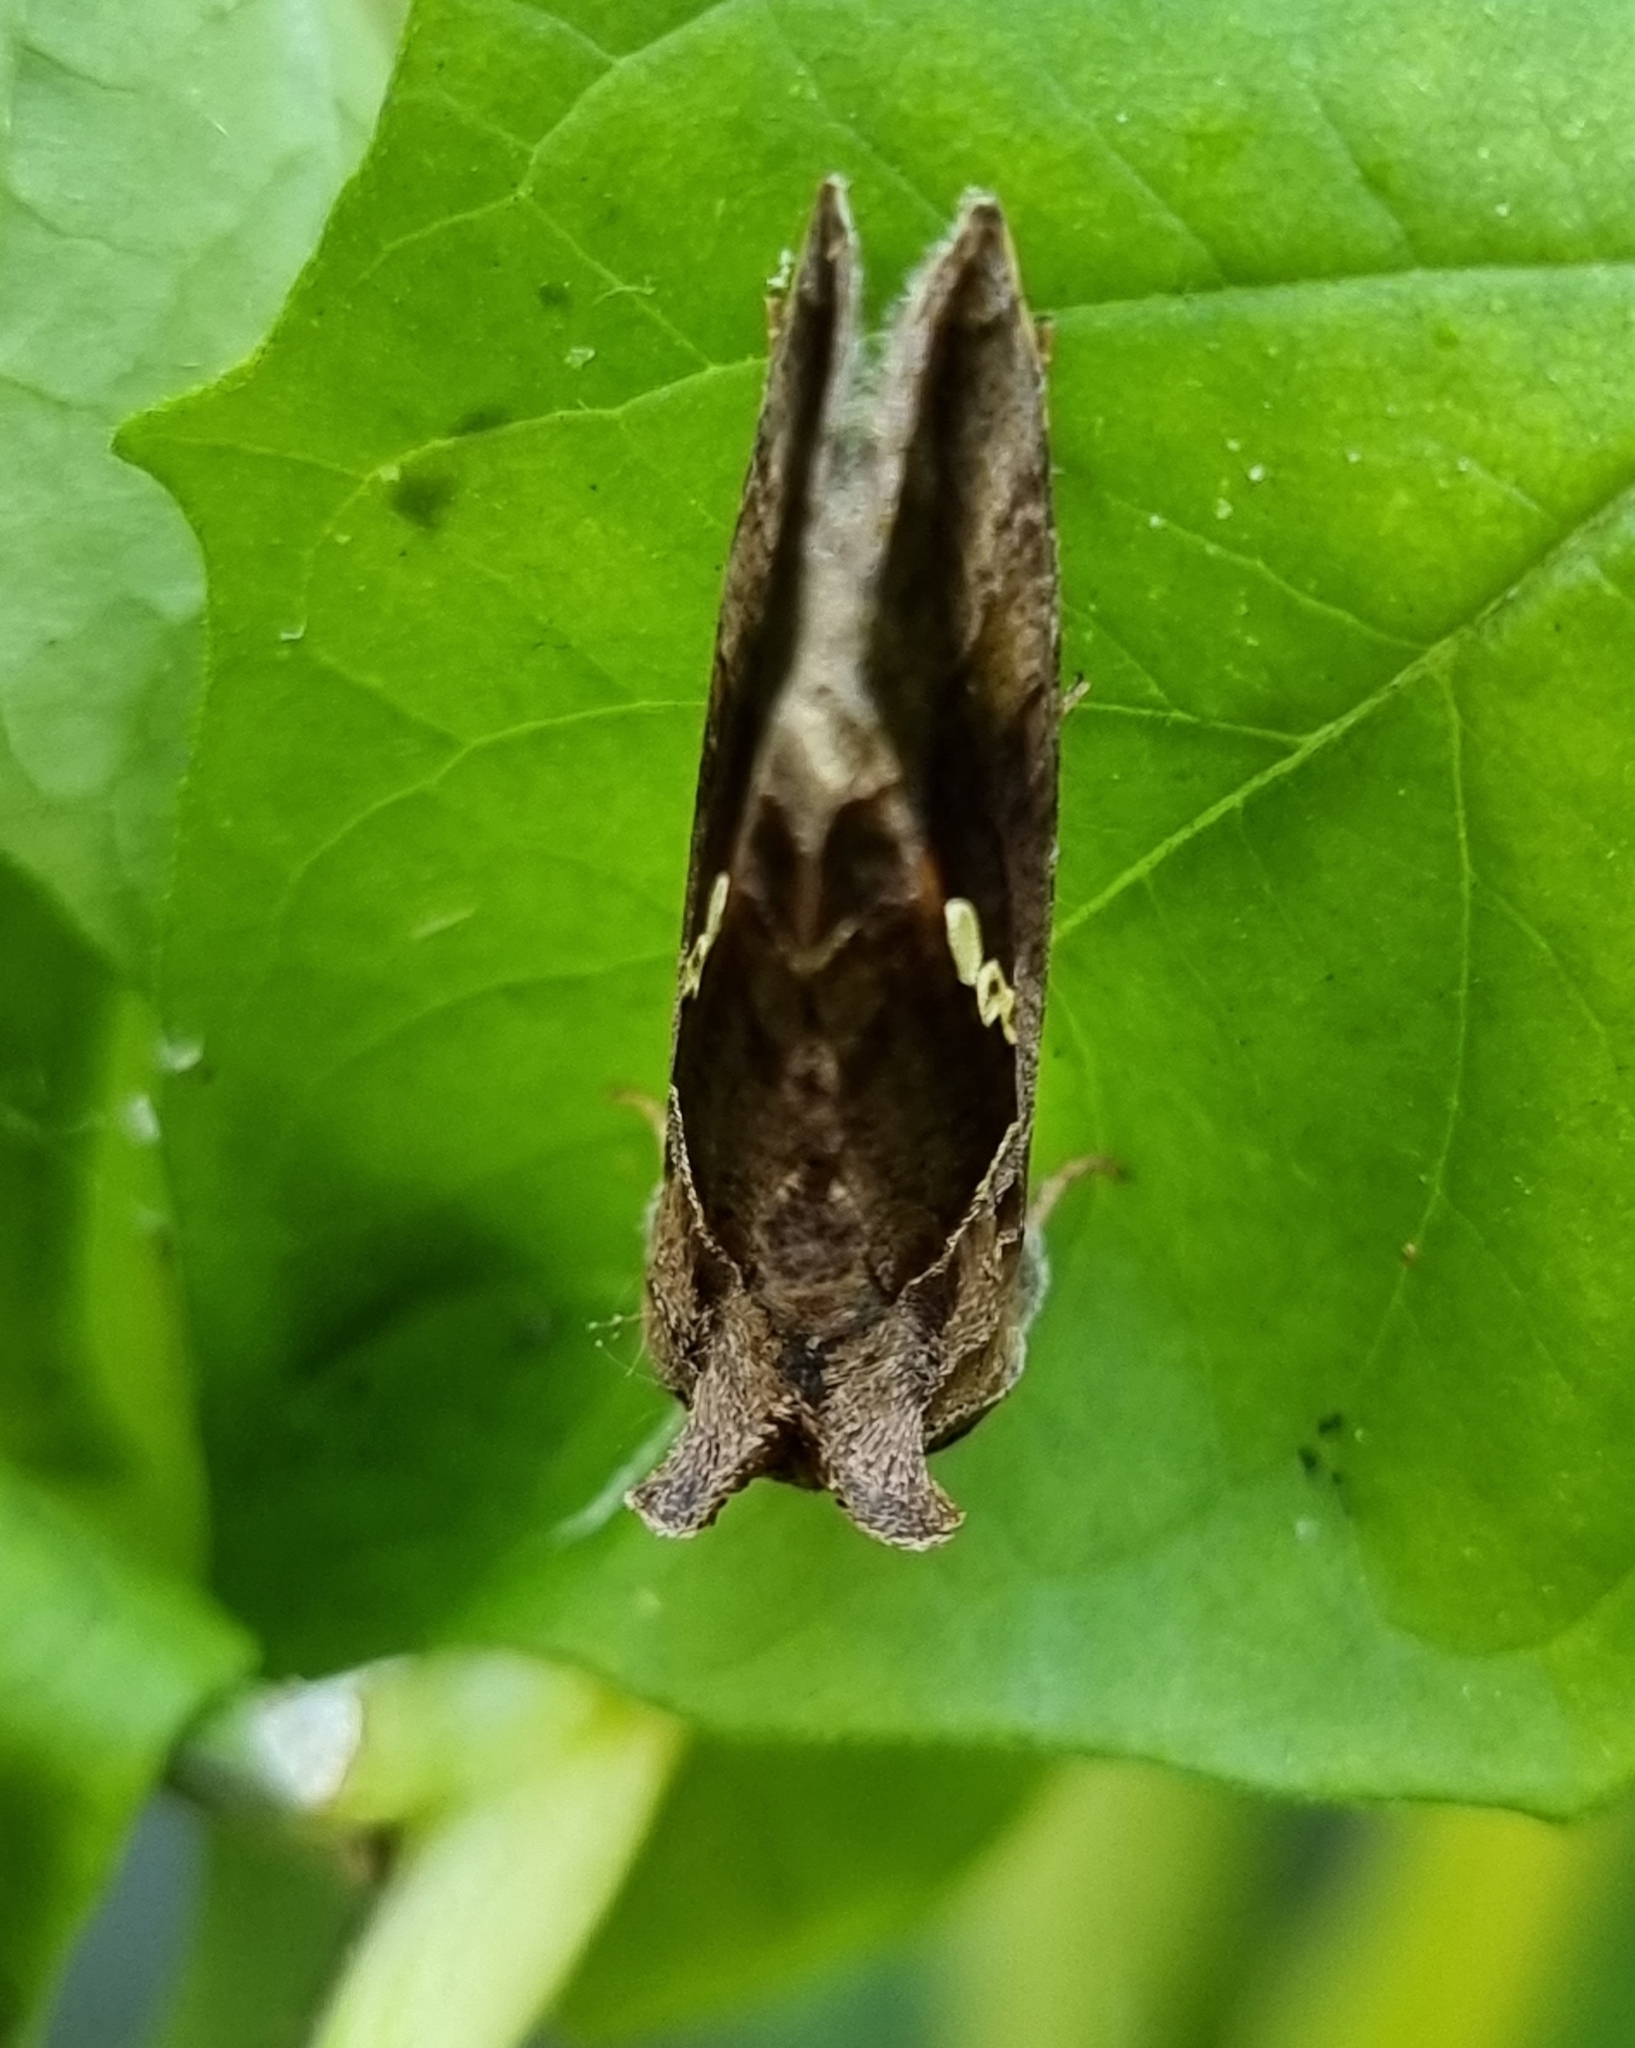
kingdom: Animalia
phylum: Arthropoda
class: Insecta
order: Lepidoptera
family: Noctuidae
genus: Chrysodeixis
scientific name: Chrysodeixis eriosoma
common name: Green garden looper
